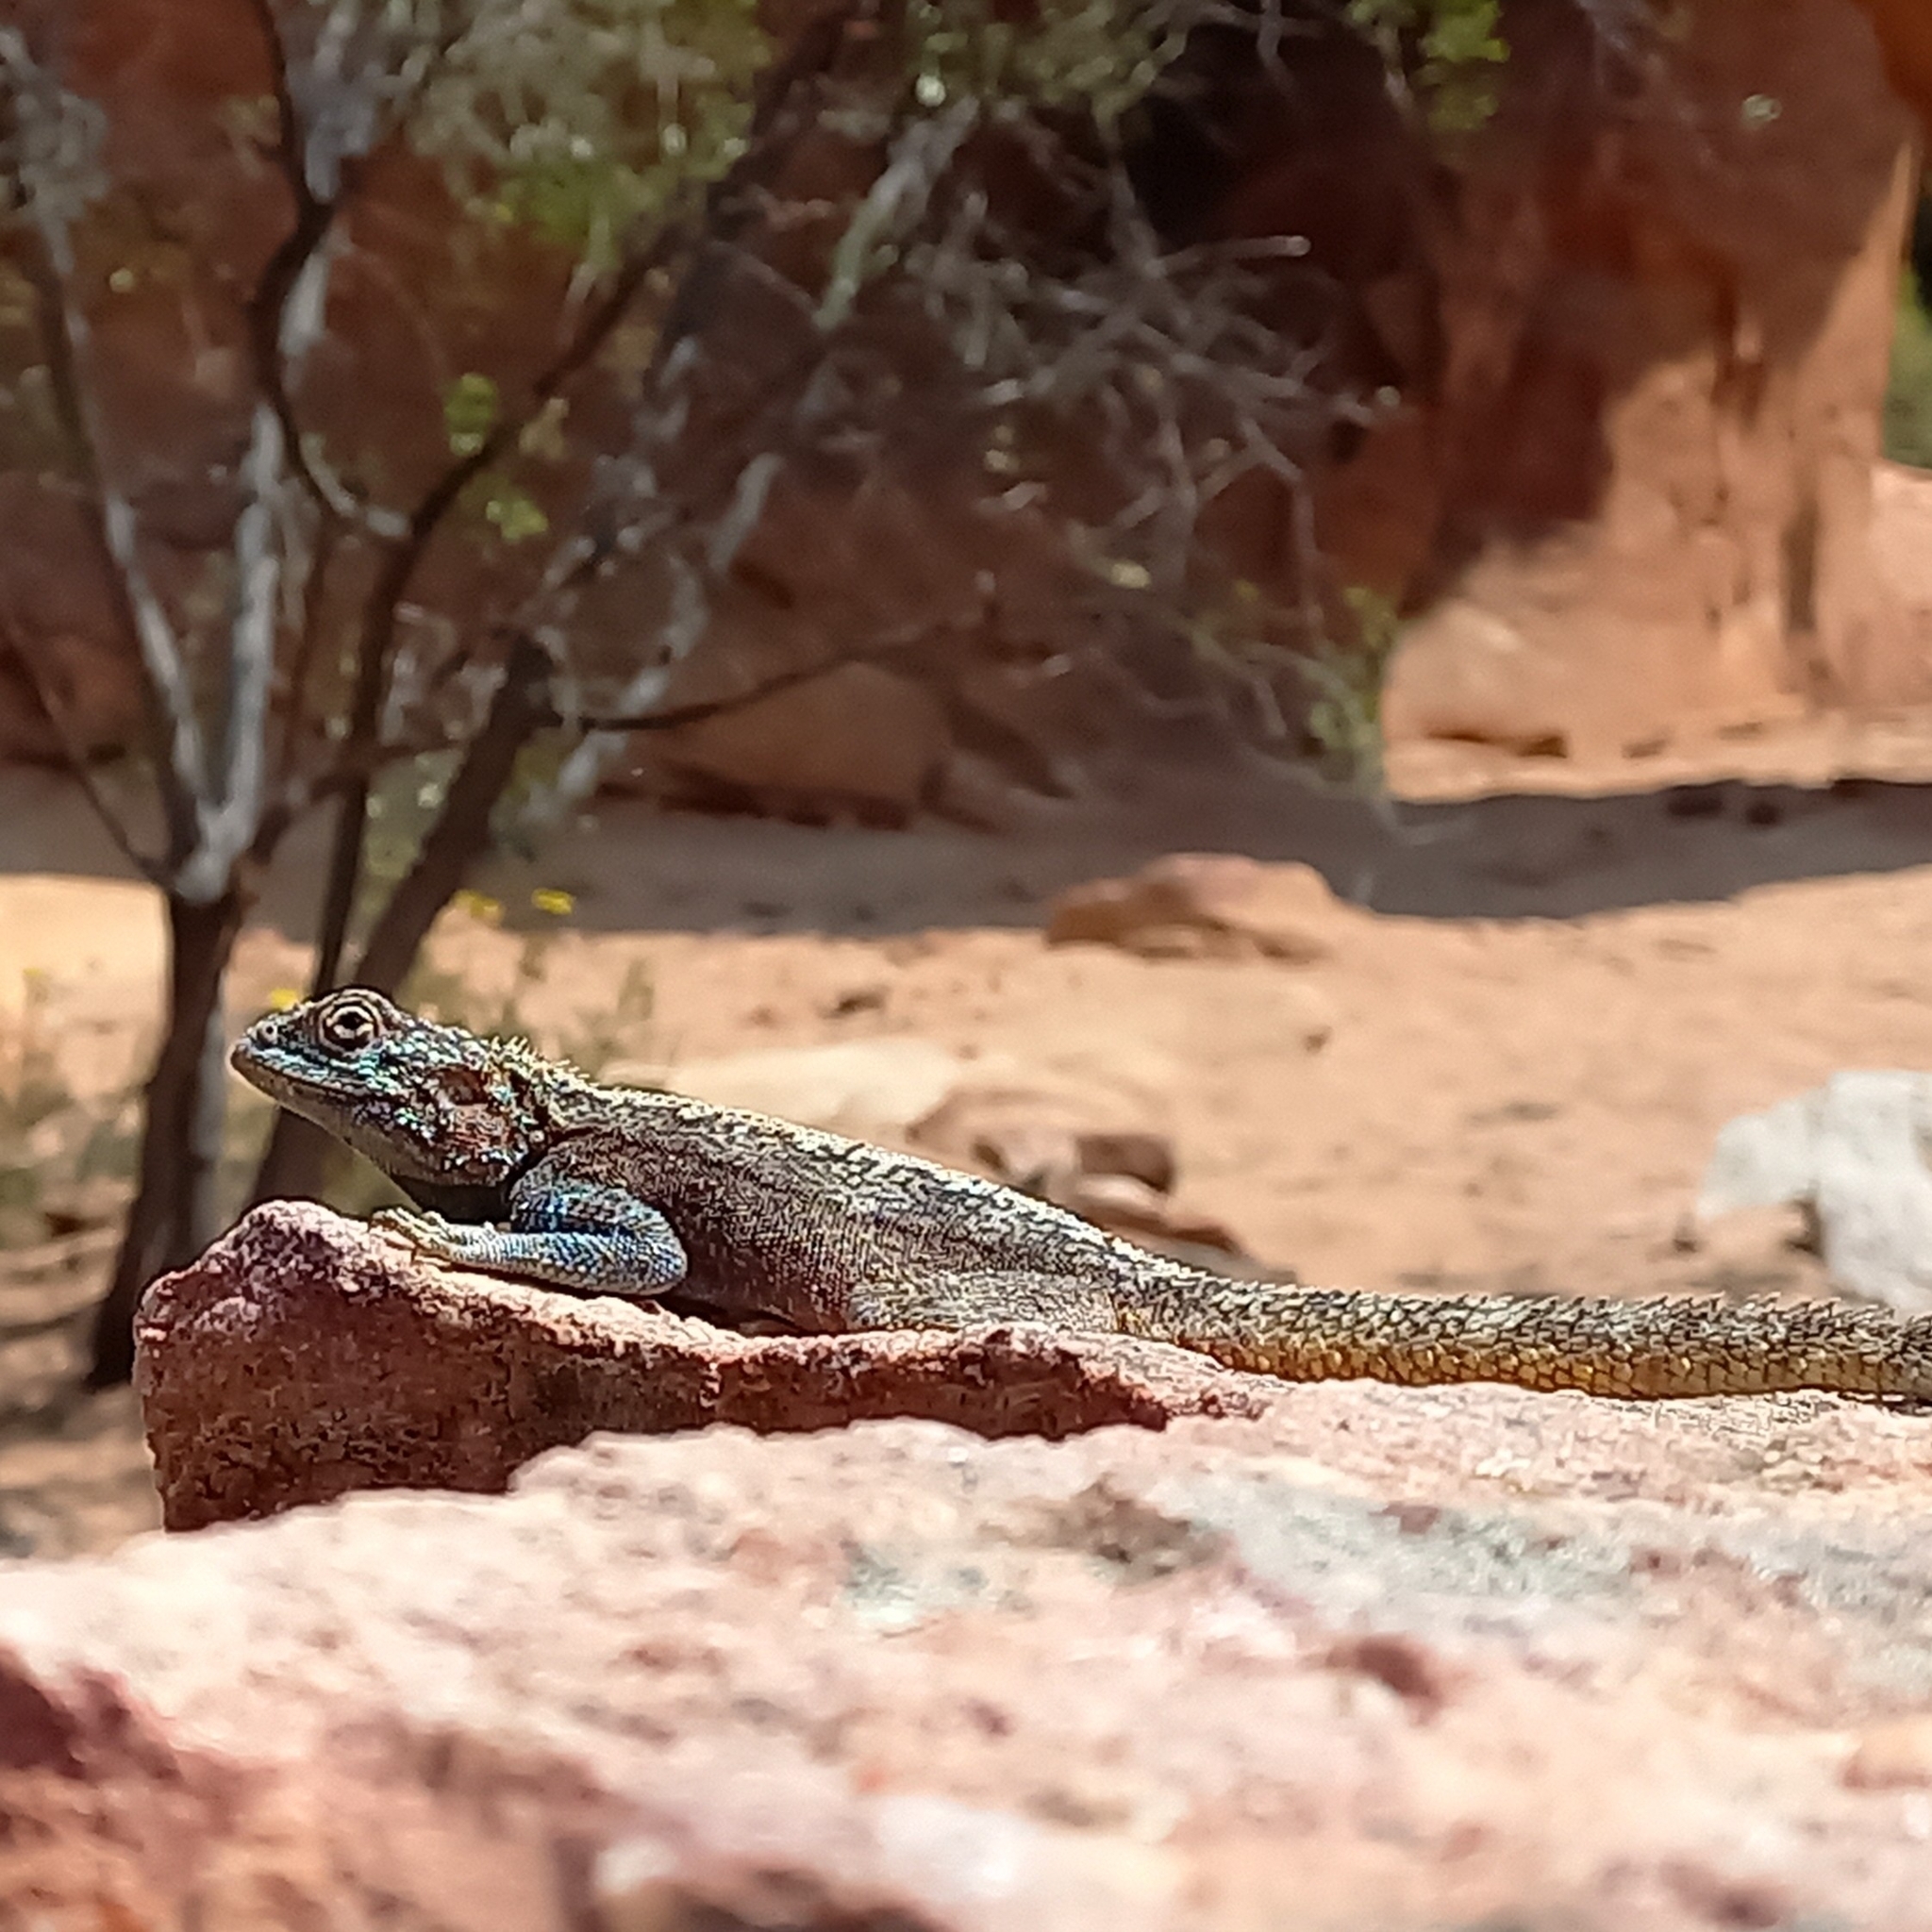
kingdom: Animalia
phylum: Chordata
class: Squamata
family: Agamidae
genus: Agama
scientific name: Agama atra
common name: Southern african rock agama
